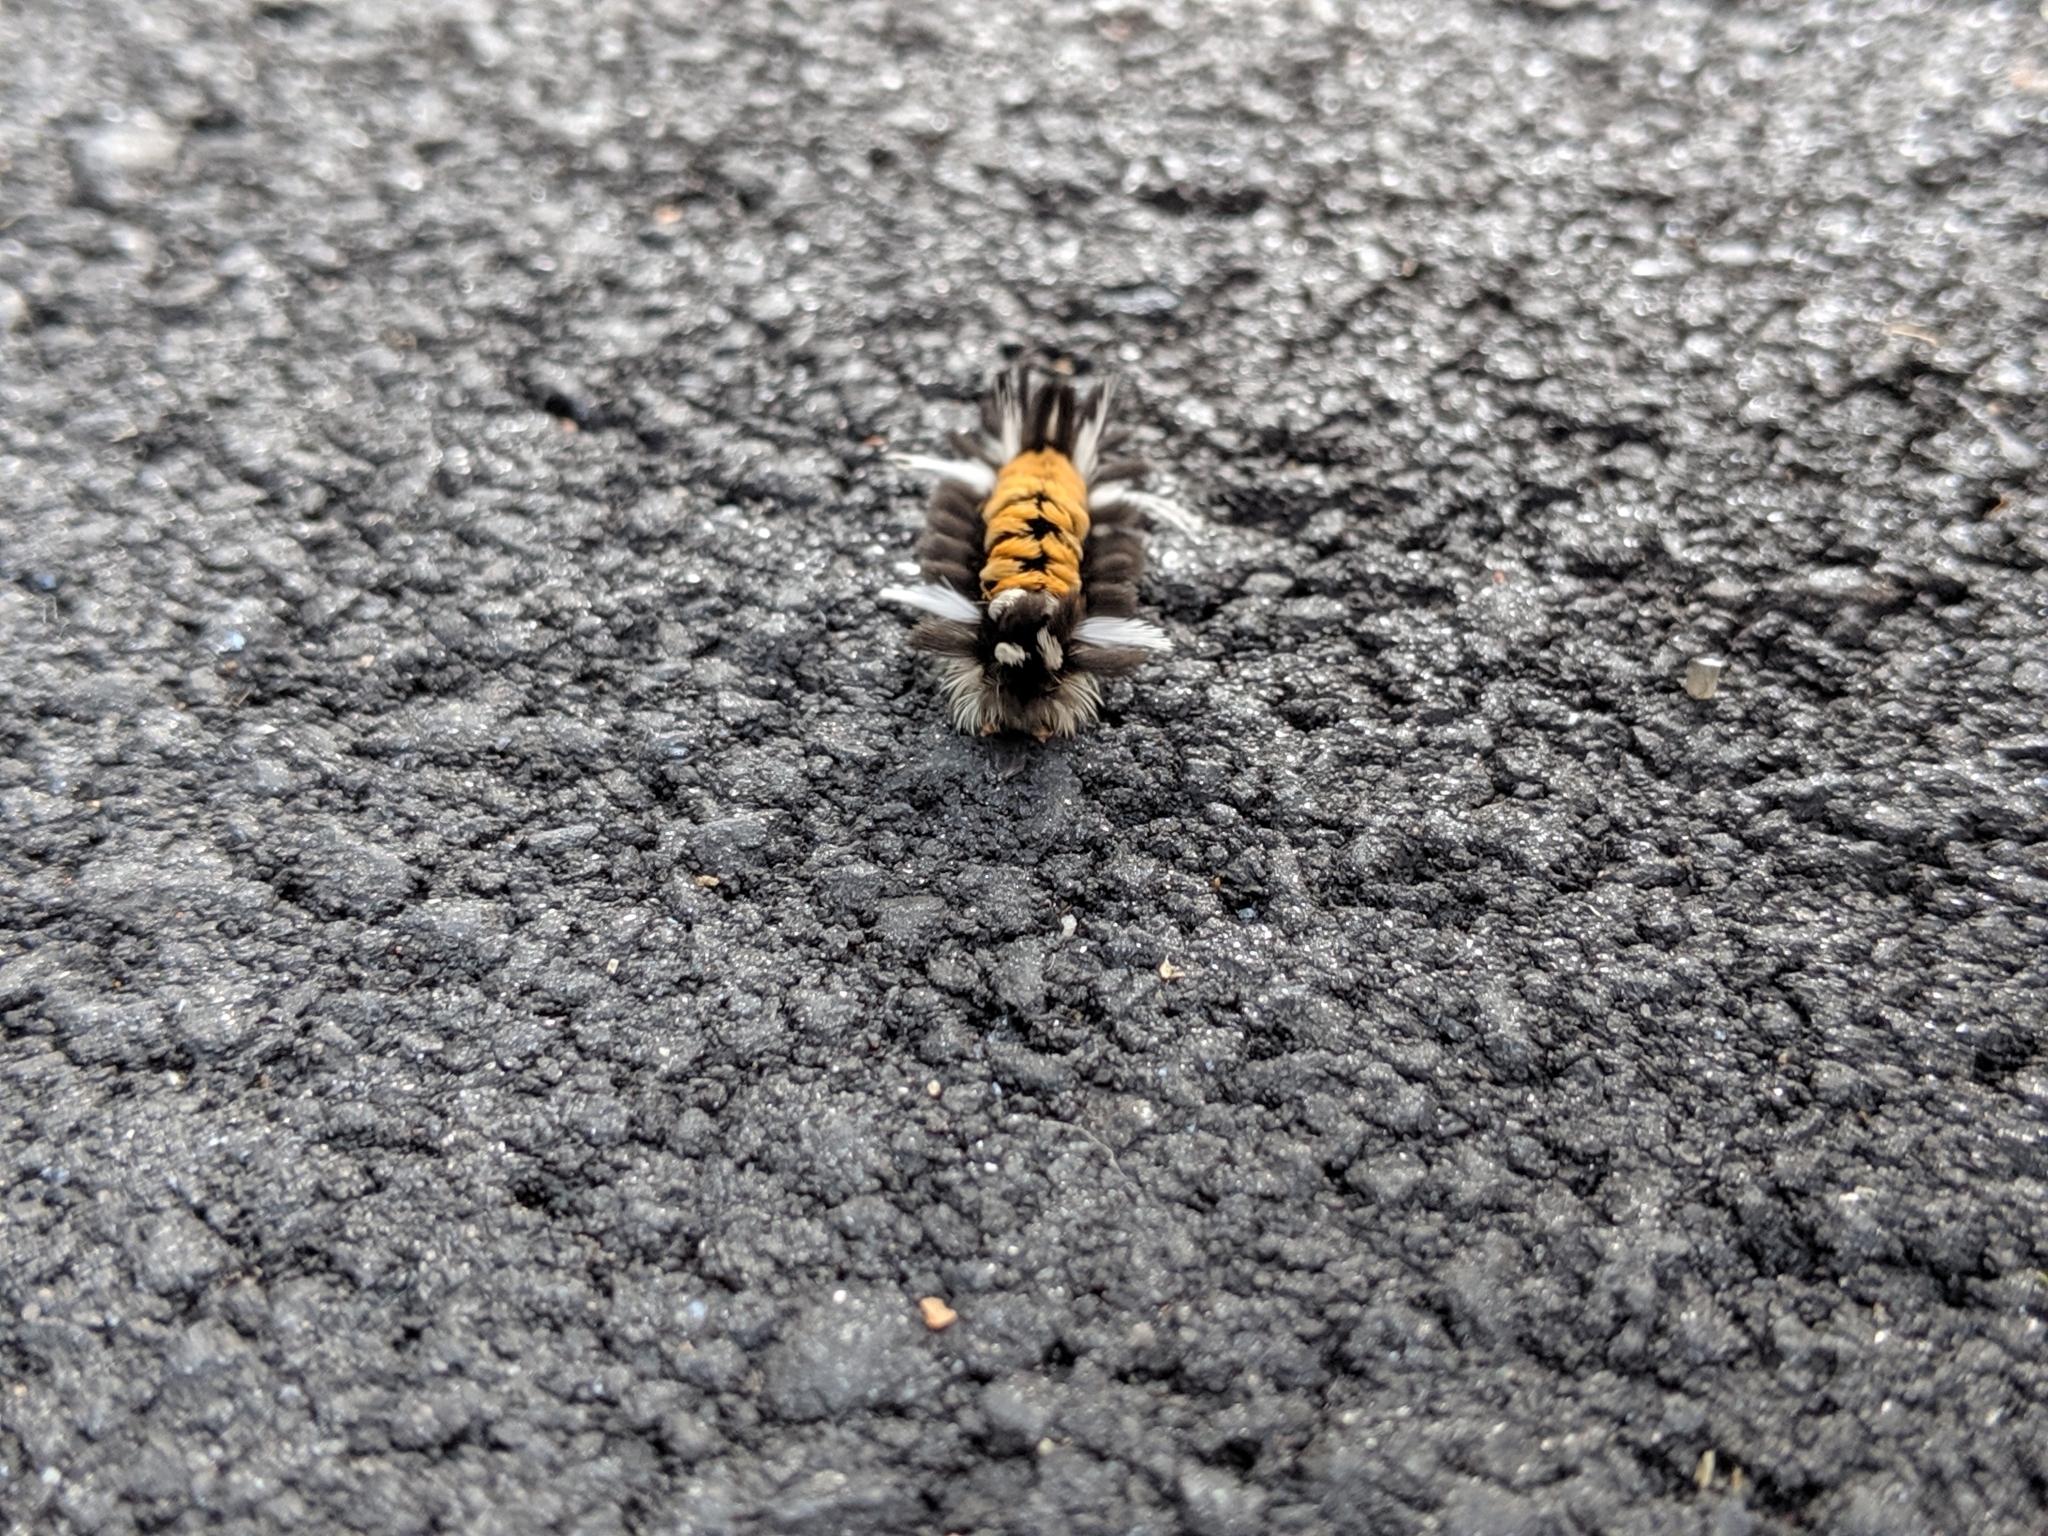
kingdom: Animalia
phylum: Arthropoda
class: Insecta
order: Lepidoptera
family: Erebidae
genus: Euchaetes
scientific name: Euchaetes egle
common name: Milkweed tussock moth
